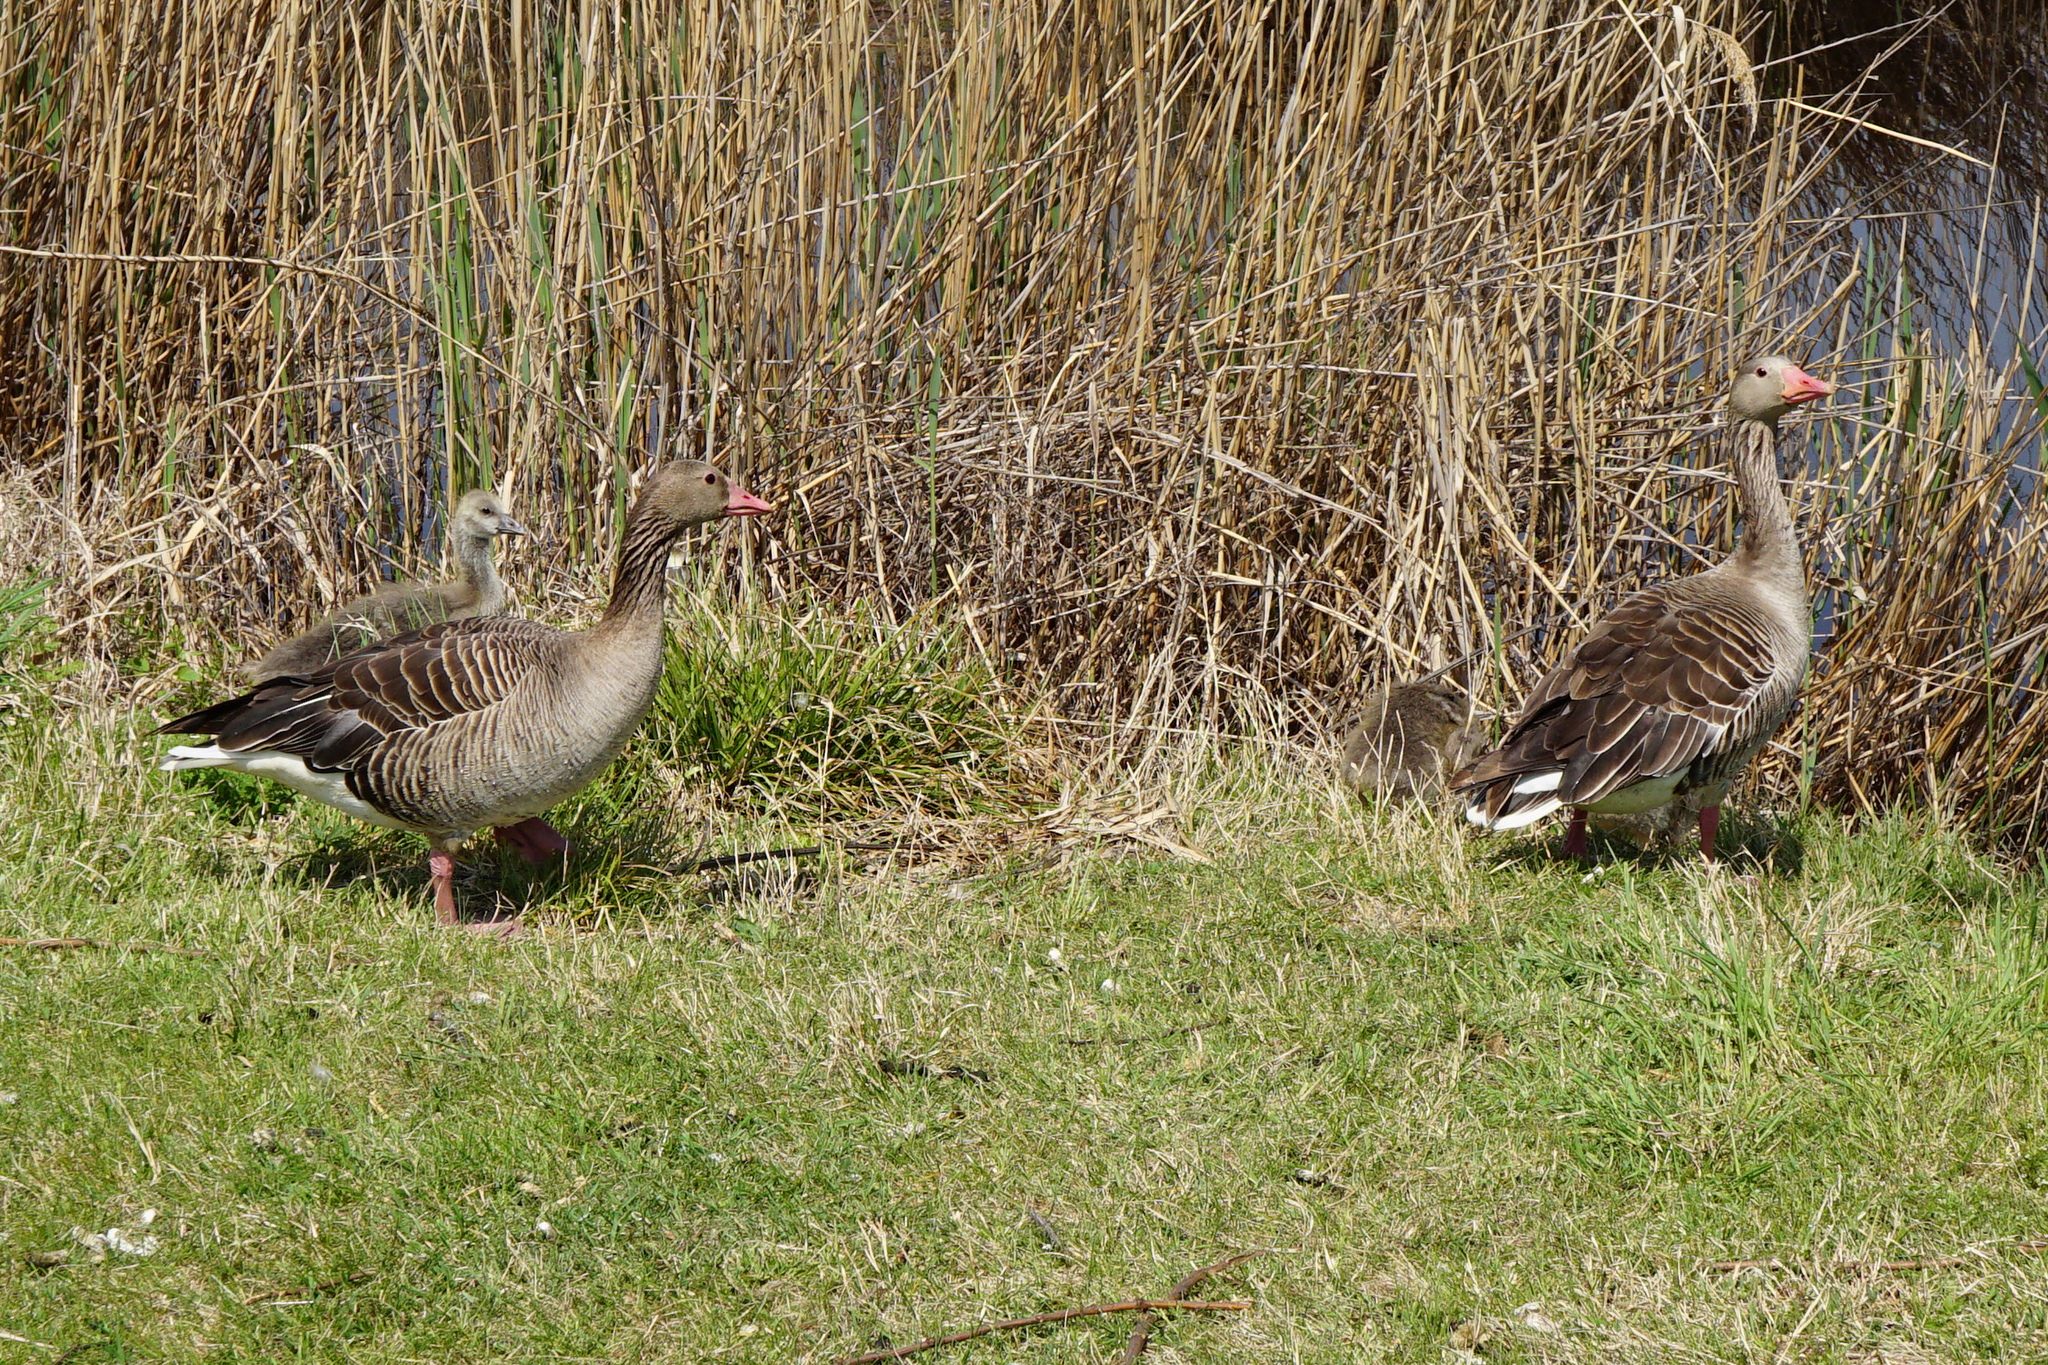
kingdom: Animalia
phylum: Chordata
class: Aves
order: Anseriformes
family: Anatidae
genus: Anser
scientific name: Anser anser
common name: Greylag goose
